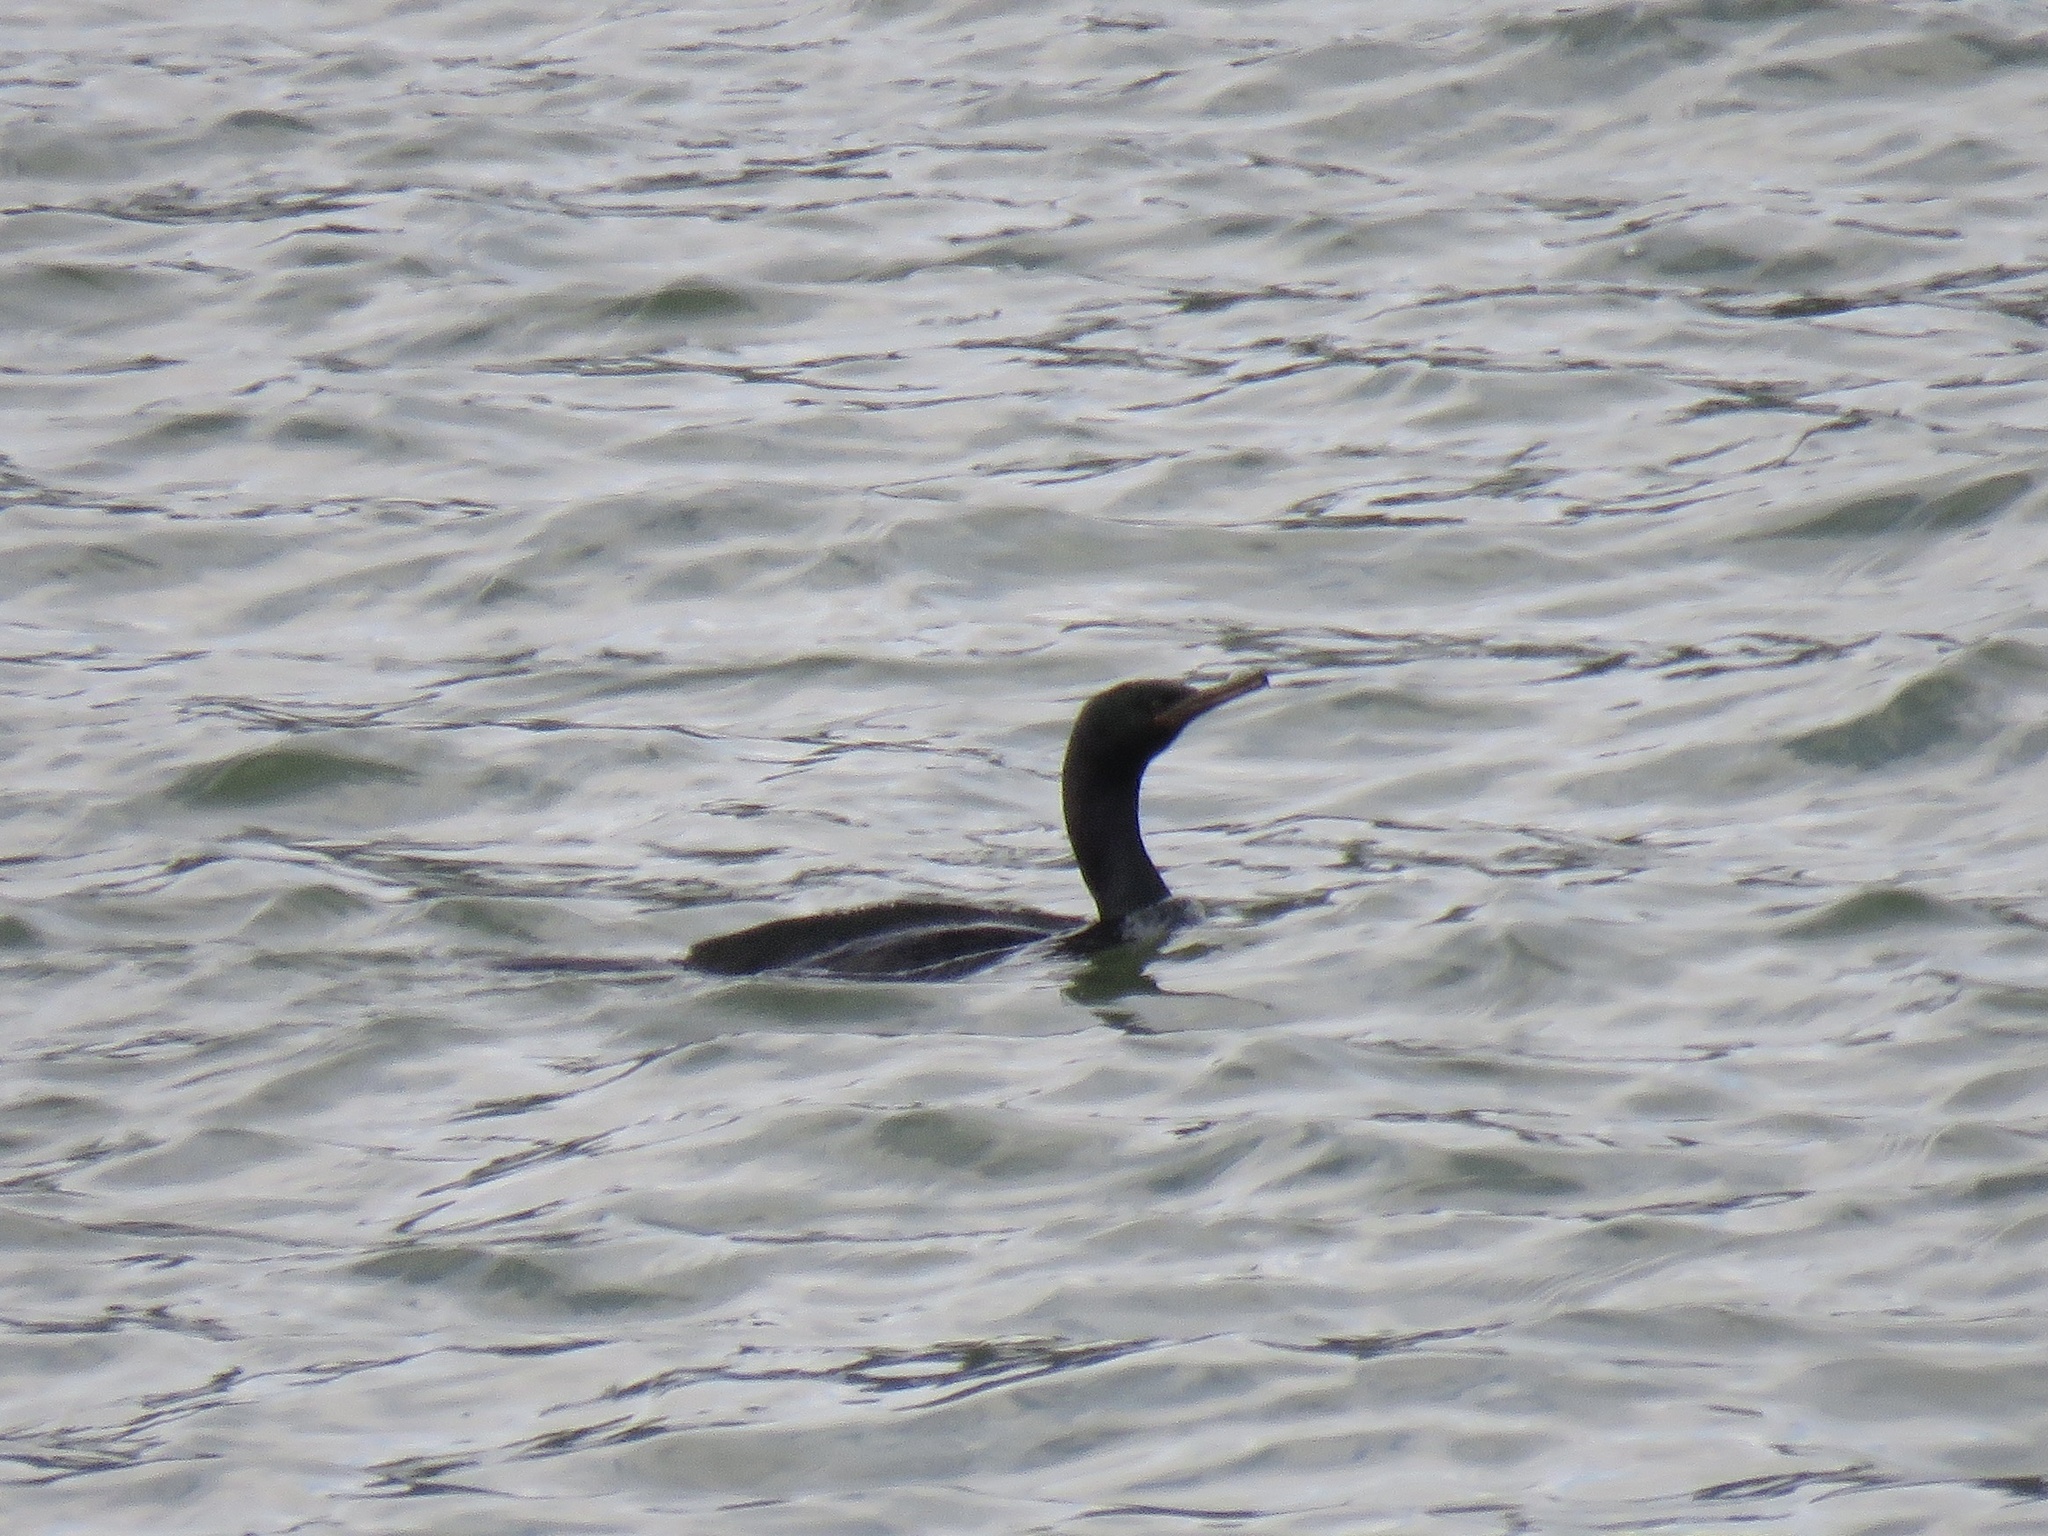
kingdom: Animalia
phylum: Chordata
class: Aves
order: Suliformes
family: Phalacrocoracidae
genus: Phalacrocorax
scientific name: Phalacrocorax pelagicus
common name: Pelagic cormorant
